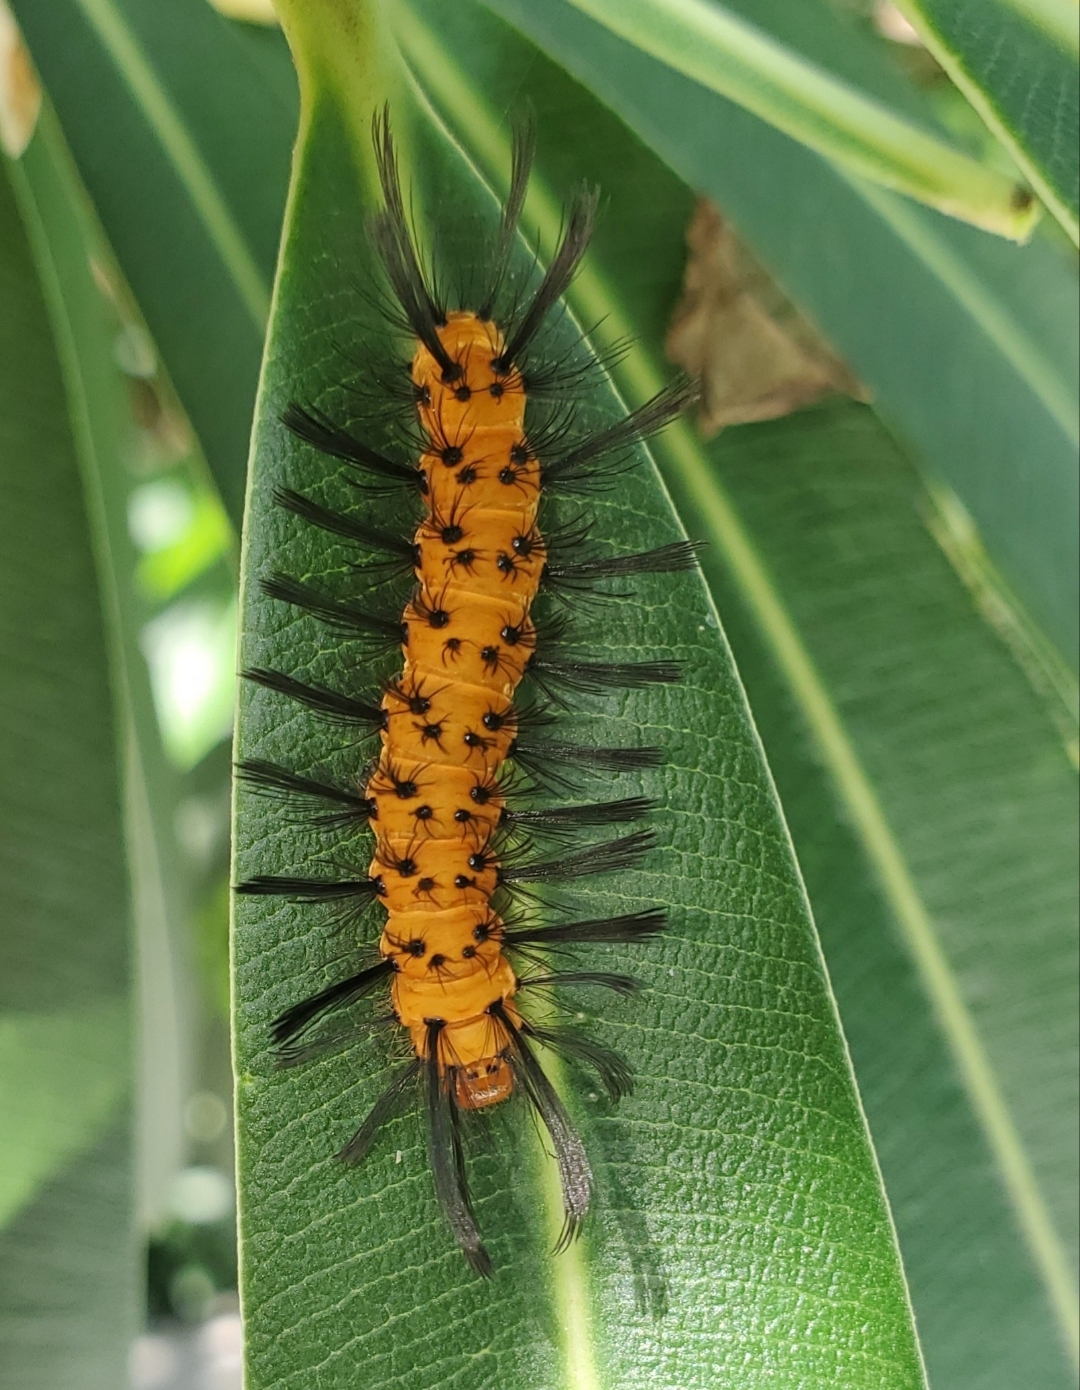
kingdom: Animalia
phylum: Arthropoda
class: Insecta
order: Lepidoptera
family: Erebidae
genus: Syntomeida
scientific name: Syntomeida epilais
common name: Polka-dot wasp moth
